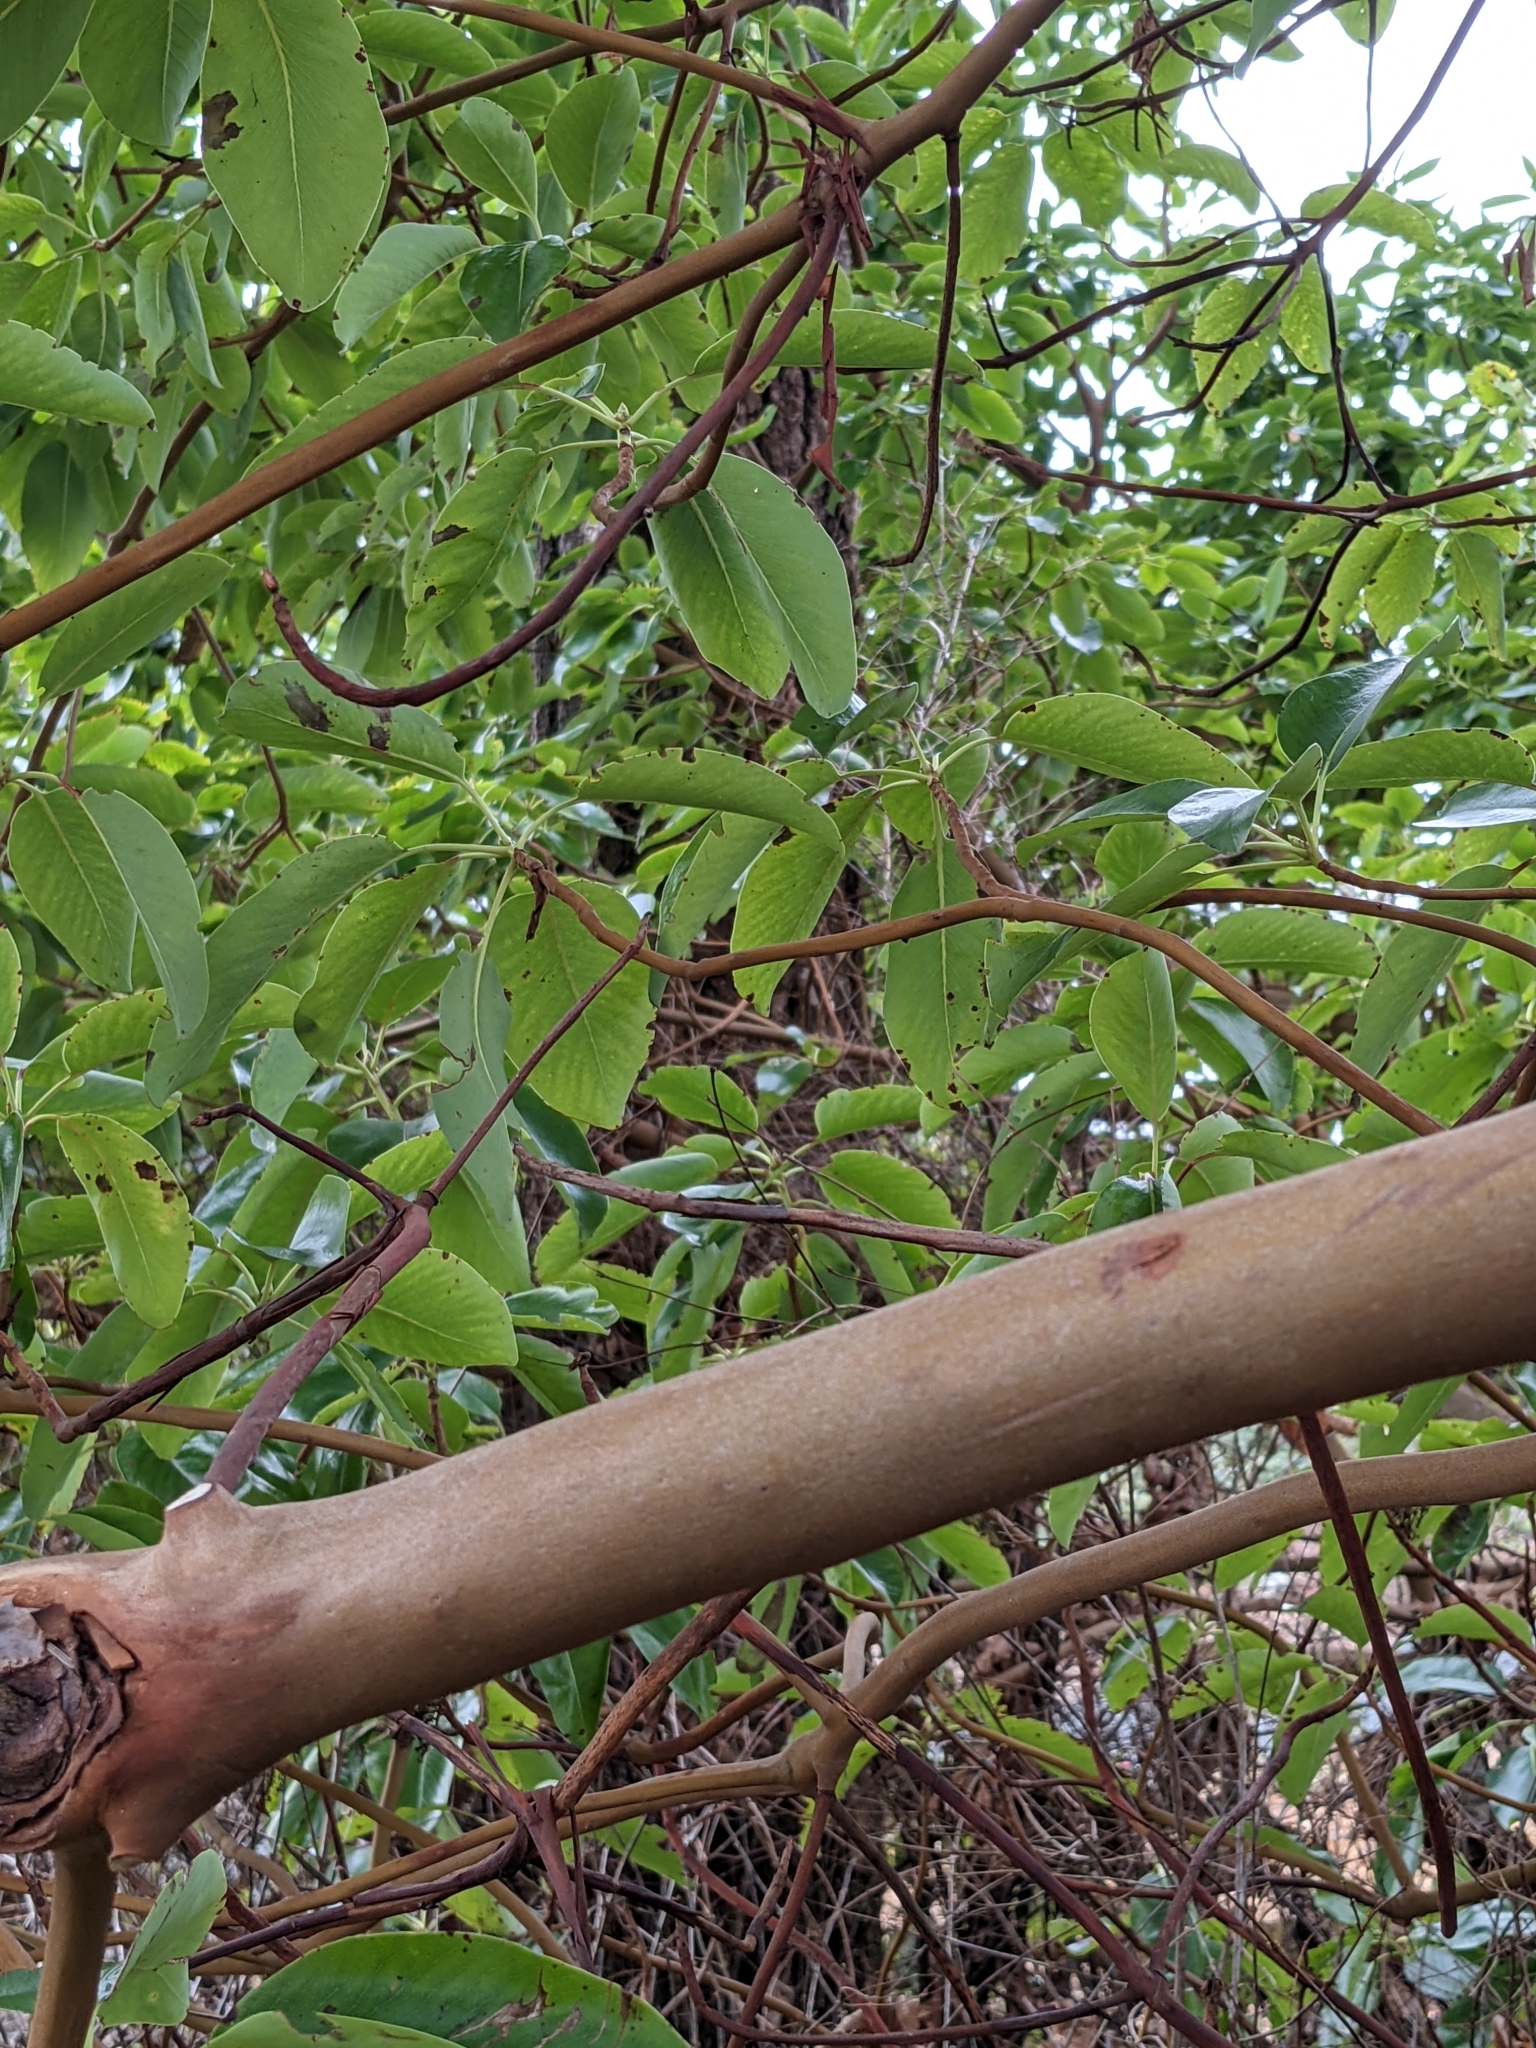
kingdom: Plantae
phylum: Tracheophyta
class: Magnoliopsida
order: Ericales
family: Ericaceae
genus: Arbutus
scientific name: Arbutus menziesii
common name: Pacific madrone
